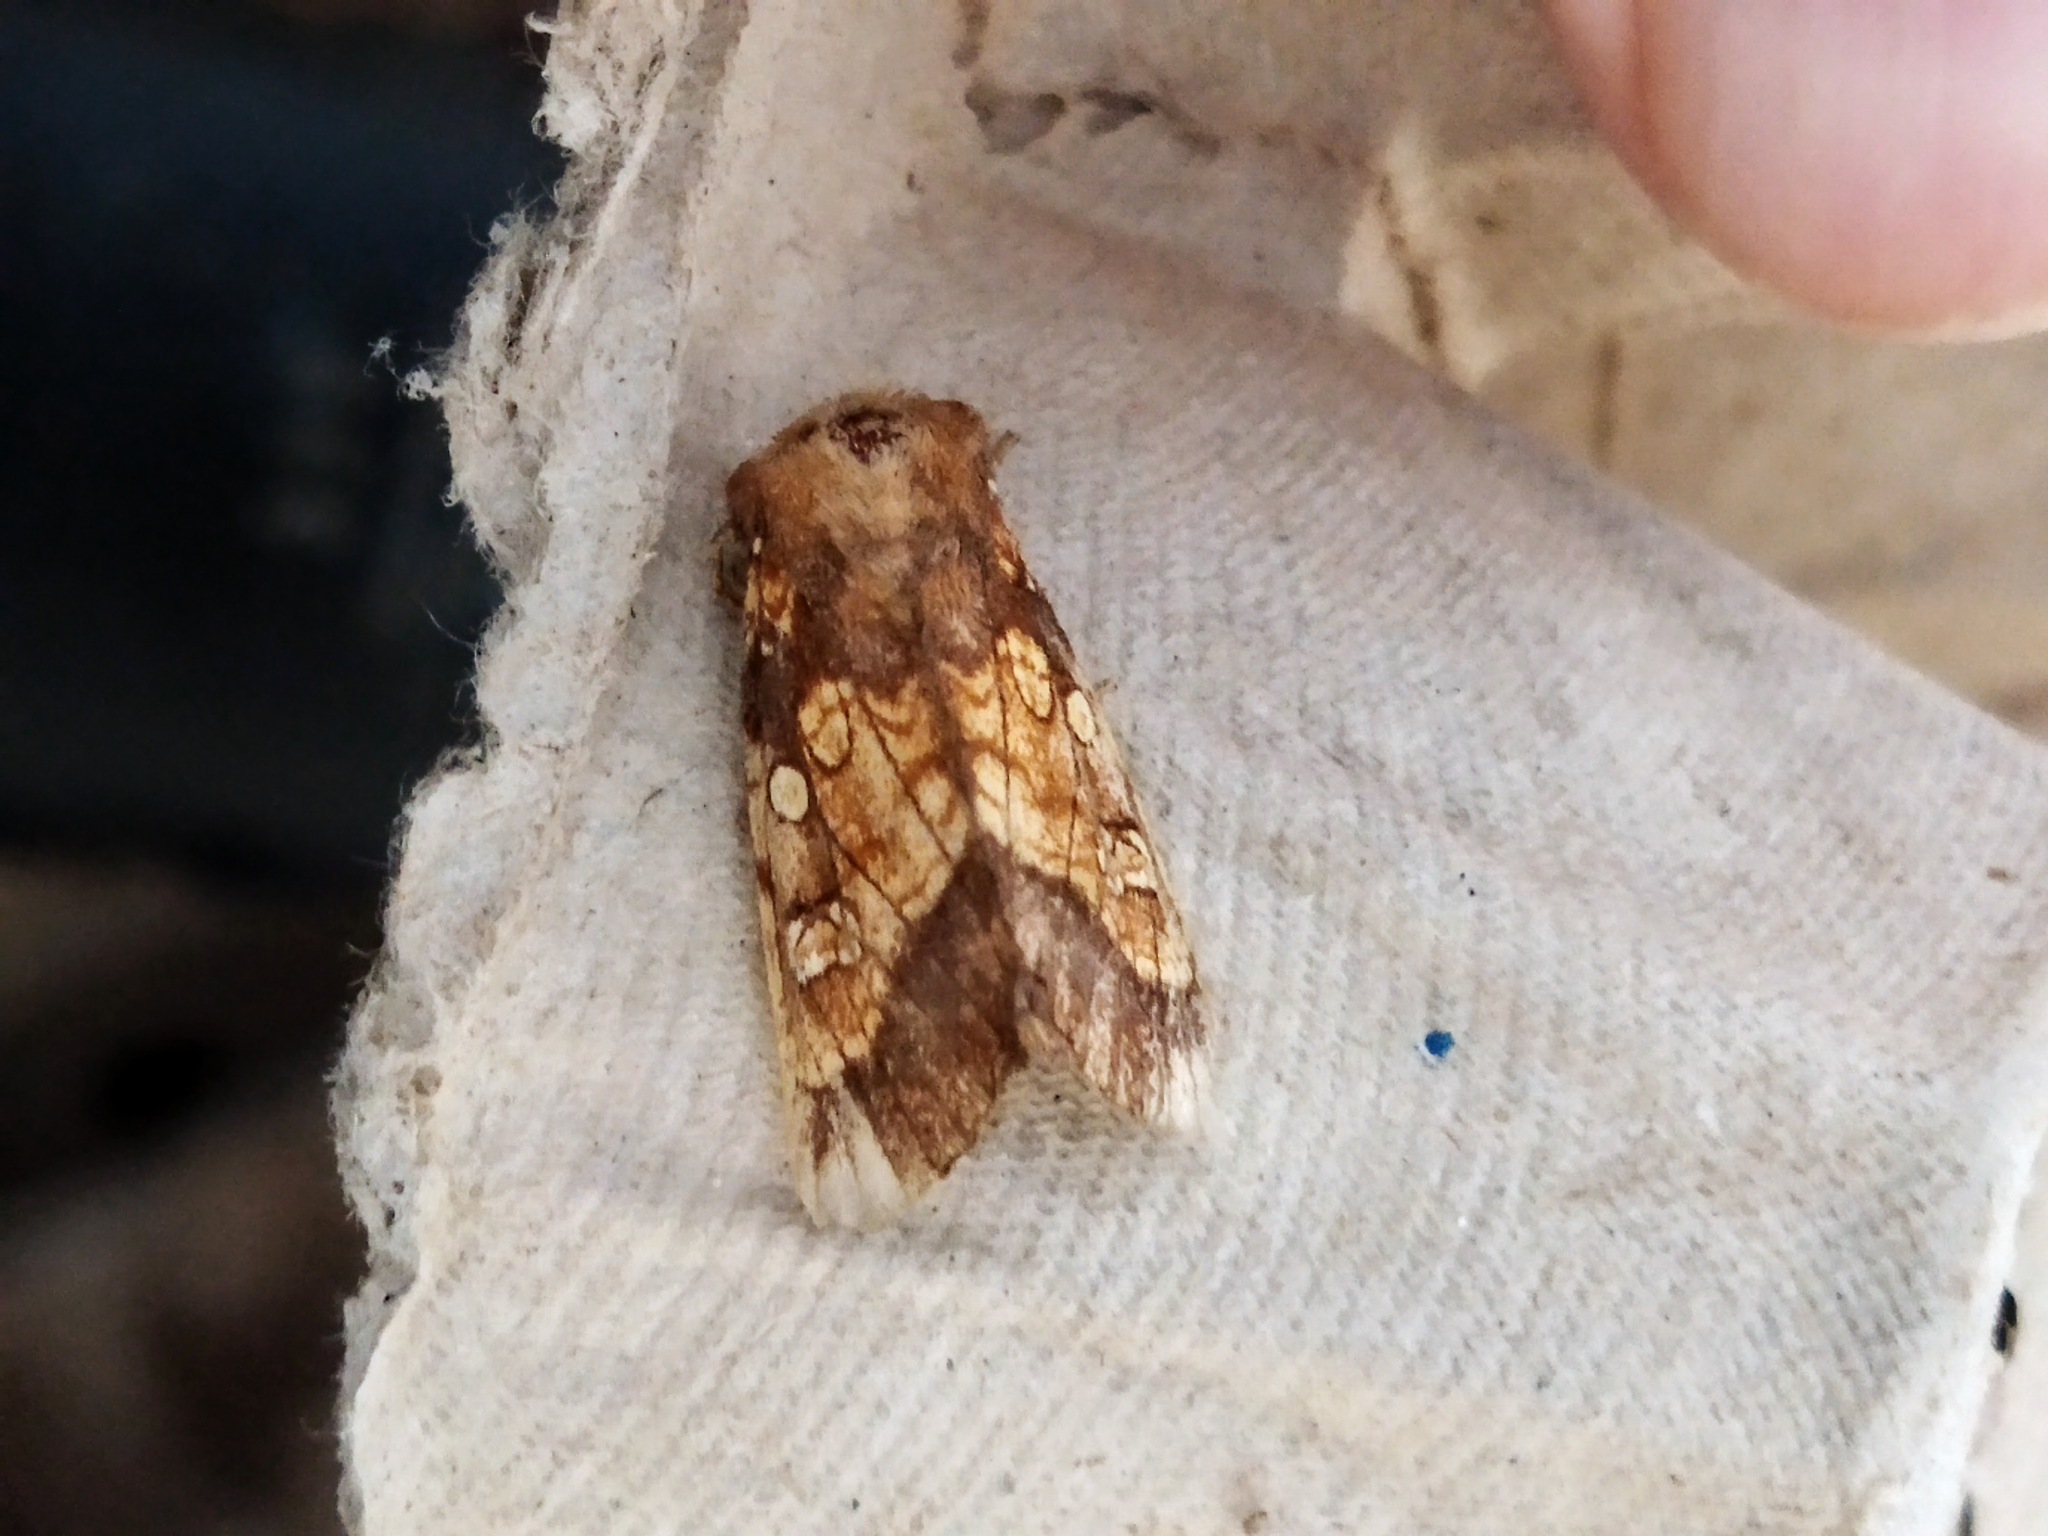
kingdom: Animalia
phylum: Arthropoda
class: Insecta
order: Lepidoptera
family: Noctuidae
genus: Gortyna
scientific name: Gortyna flavago
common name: Frosted orange
